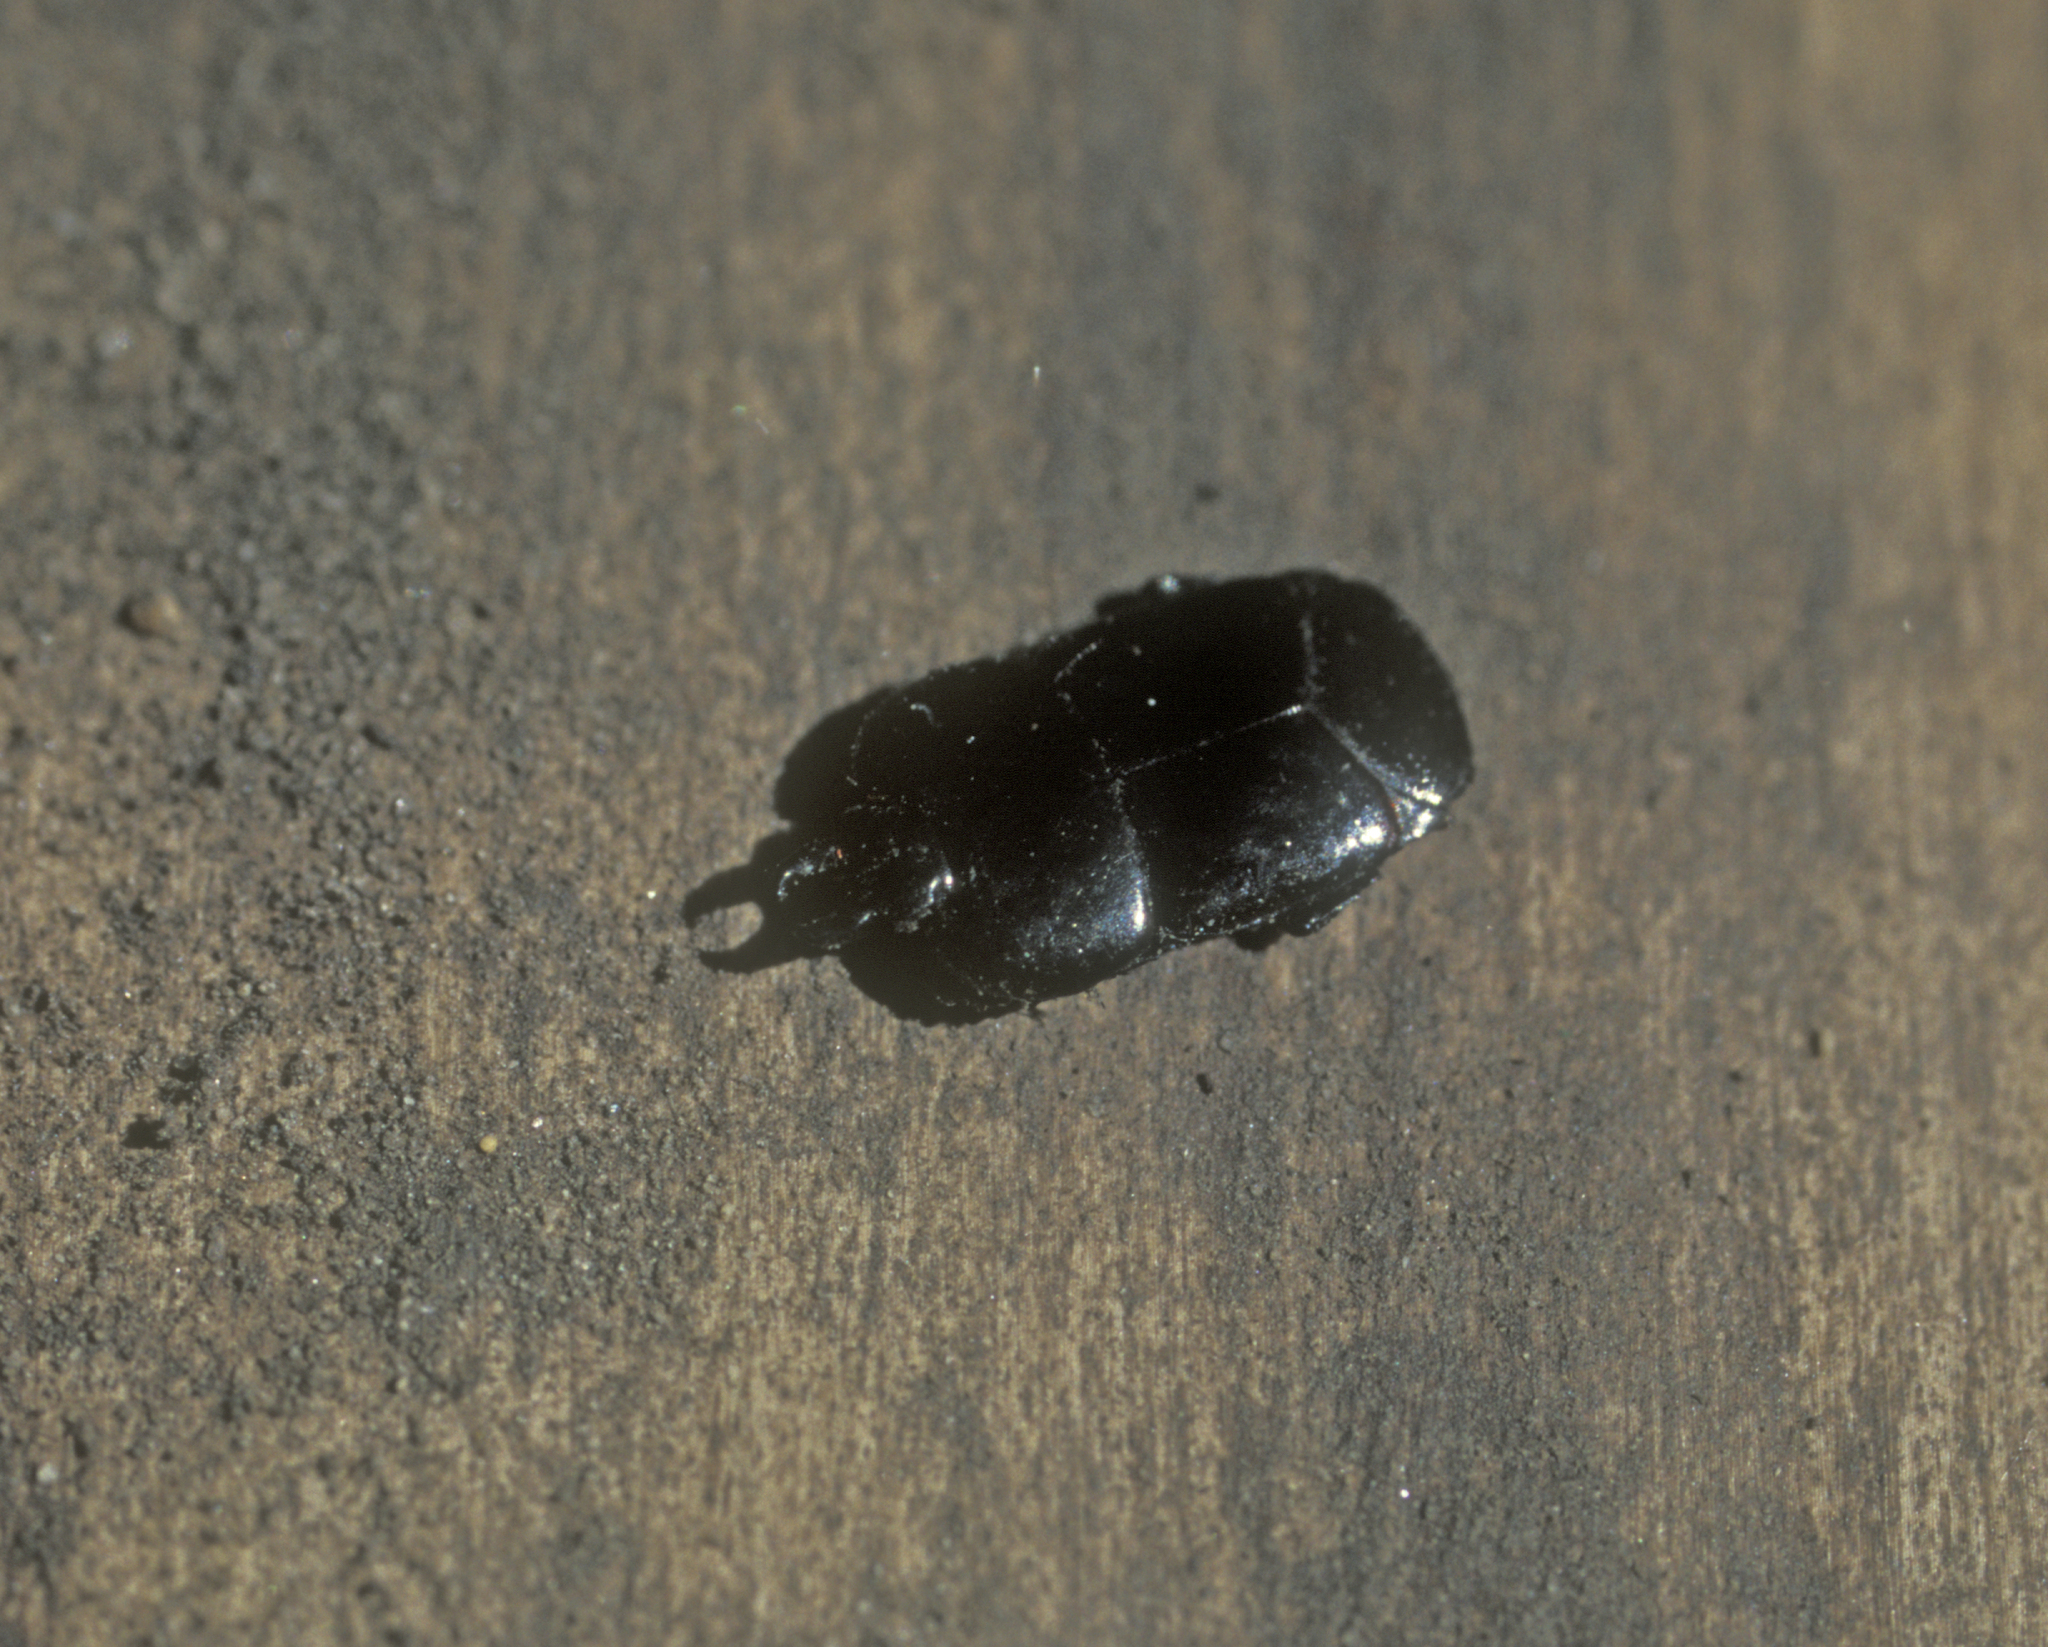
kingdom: Animalia
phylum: Arthropoda
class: Insecta
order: Coleoptera
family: Histeridae
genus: Hololepta
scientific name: Hololepta plana
